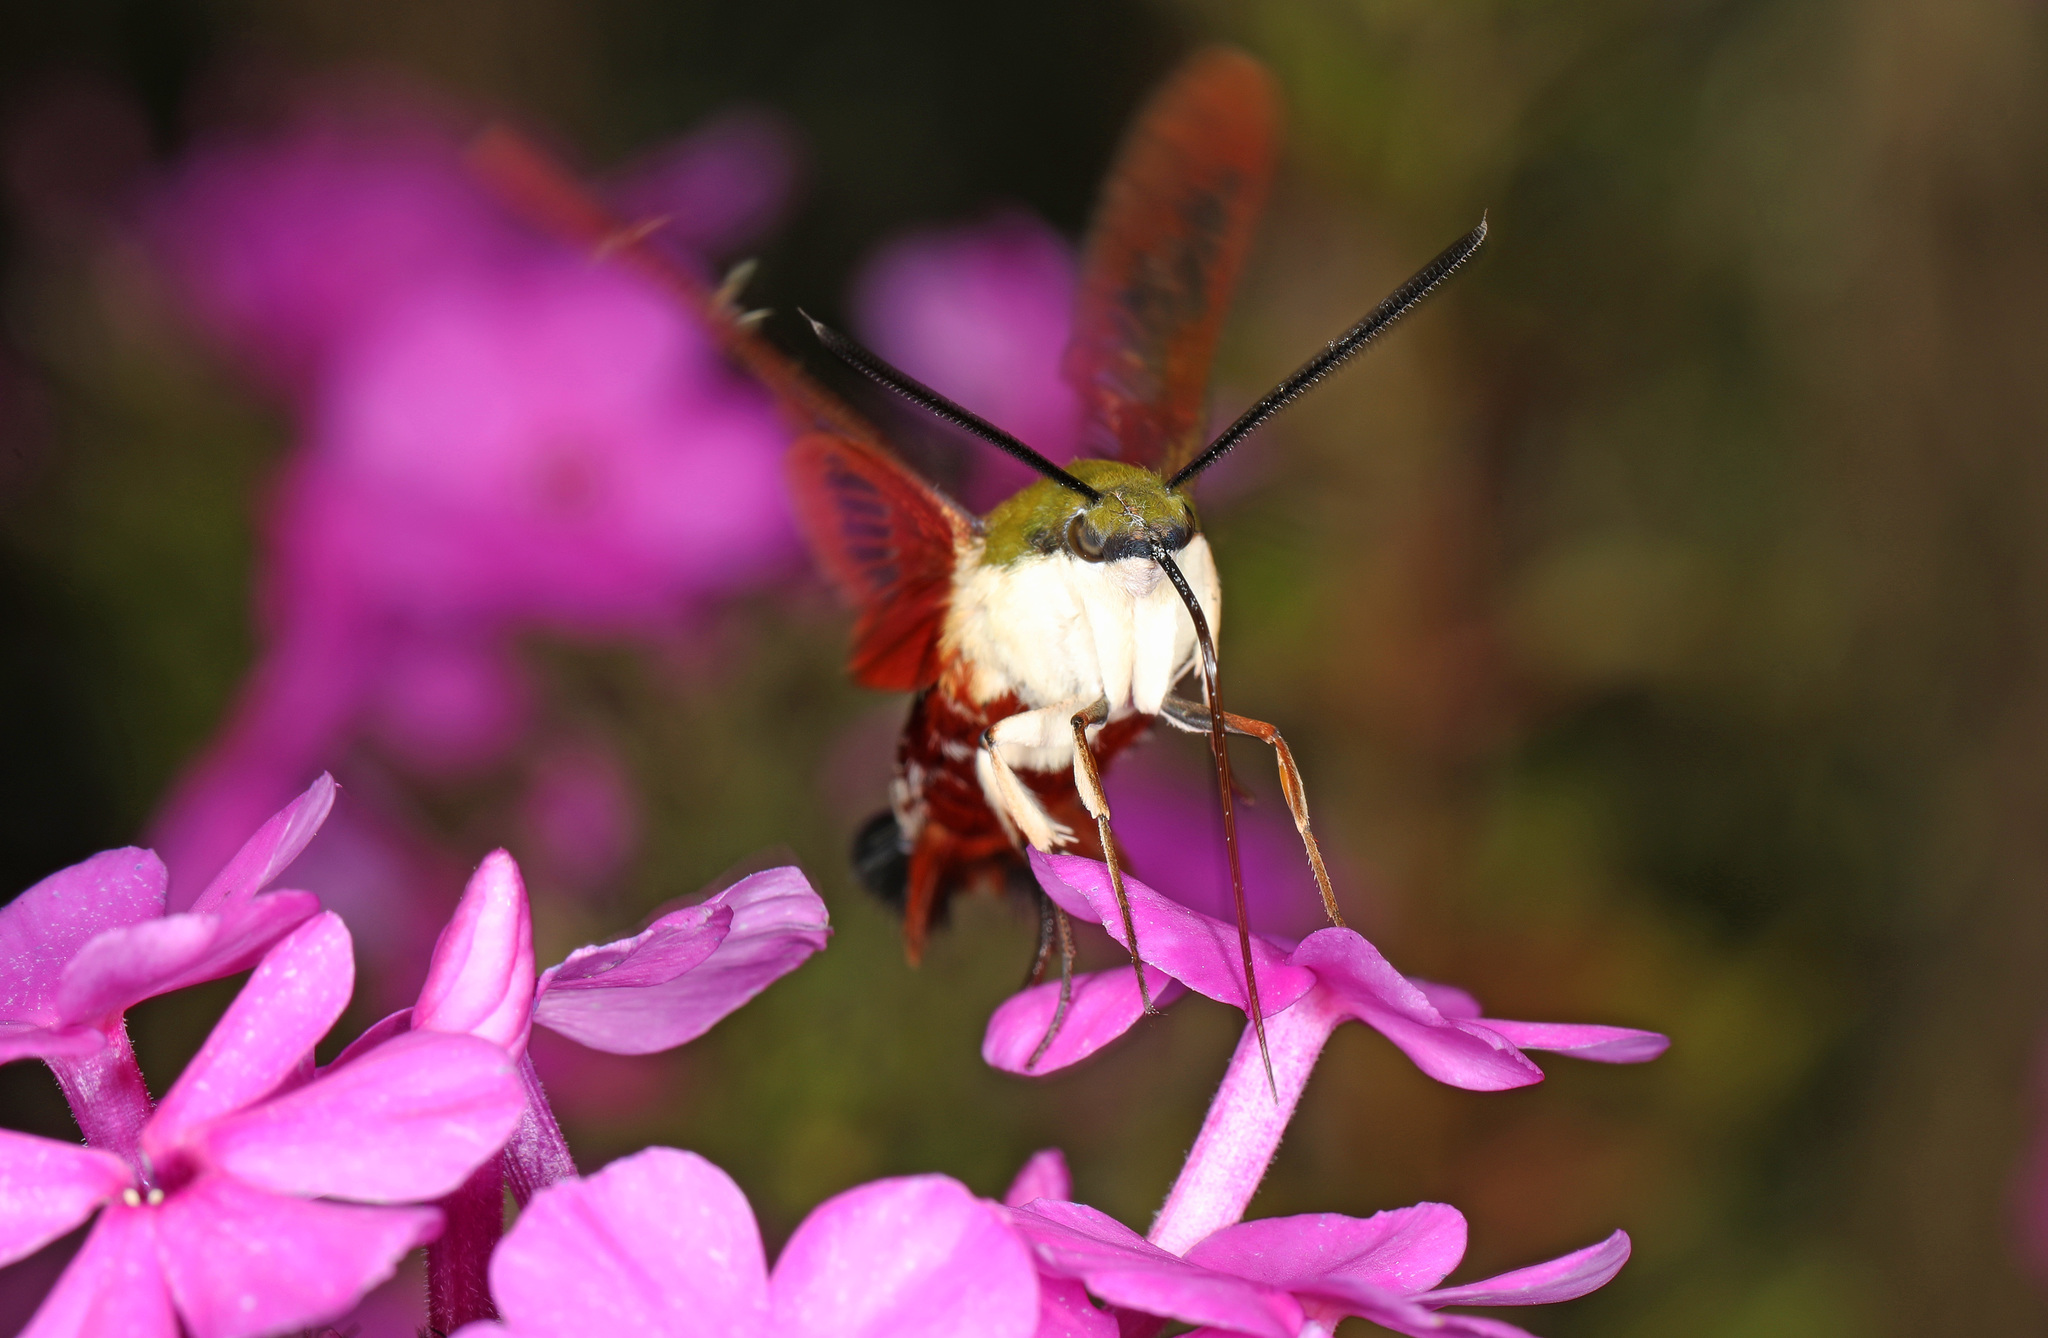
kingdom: Animalia
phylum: Arthropoda
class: Insecta
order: Lepidoptera
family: Sphingidae
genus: Hemaris
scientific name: Hemaris thysbe
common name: Common clear-wing
